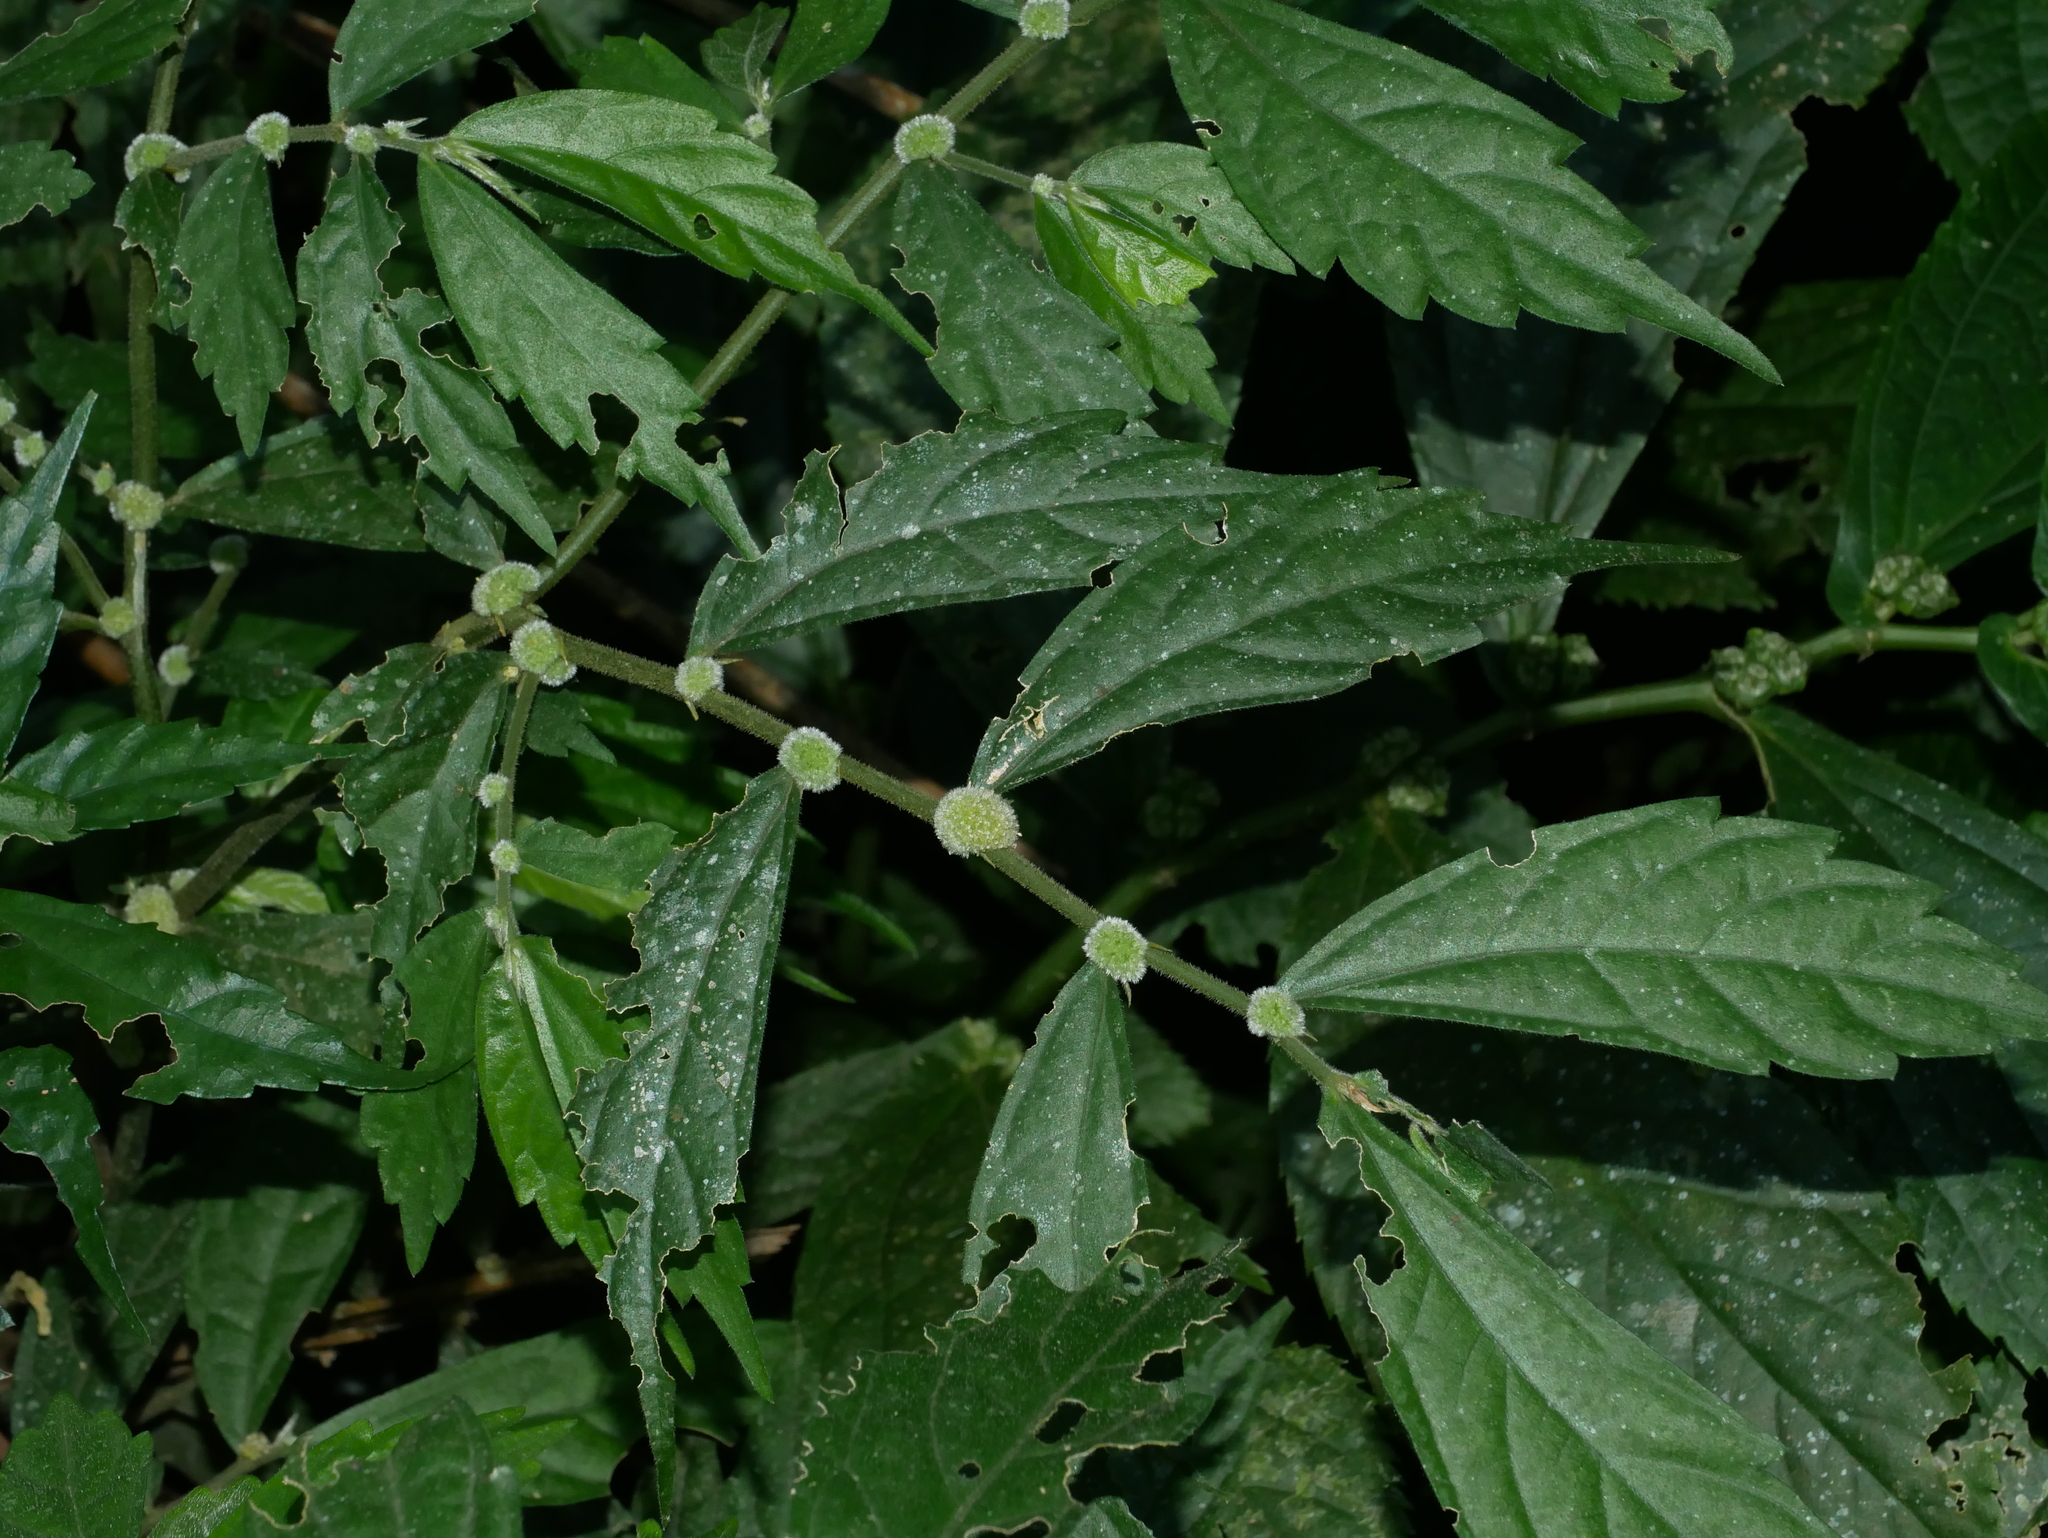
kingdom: Plantae
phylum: Tracheophyta
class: Magnoliopsida
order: Rosales
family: Urticaceae
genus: Elatostema
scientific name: Elatostema lineolatum
